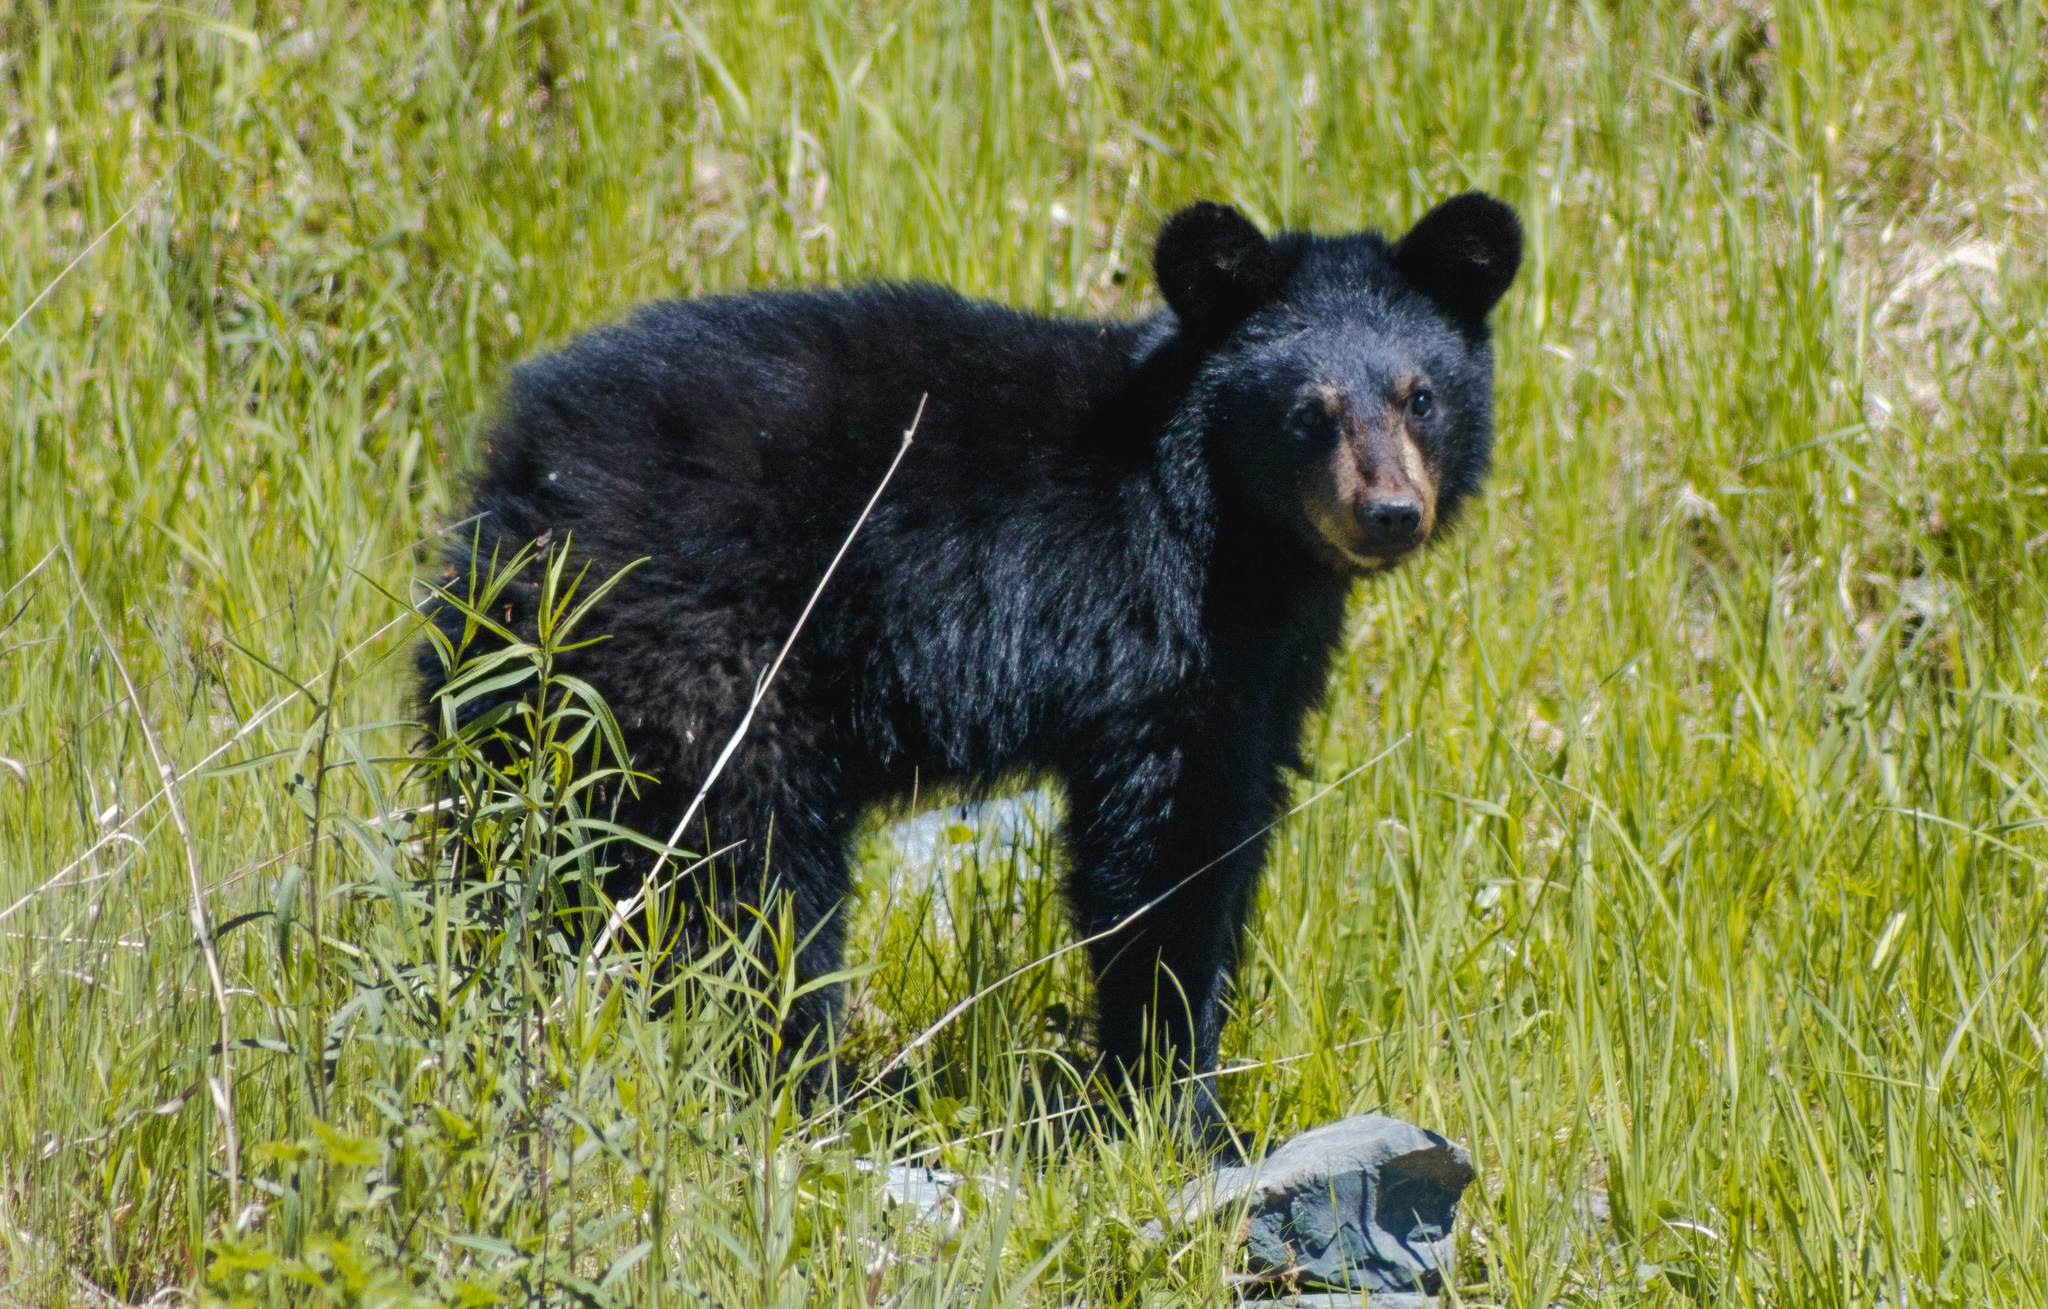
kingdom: Animalia
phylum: Chordata
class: Mammalia
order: Carnivora
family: Ursidae
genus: Ursus
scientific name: Ursus americanus
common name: American black bear
